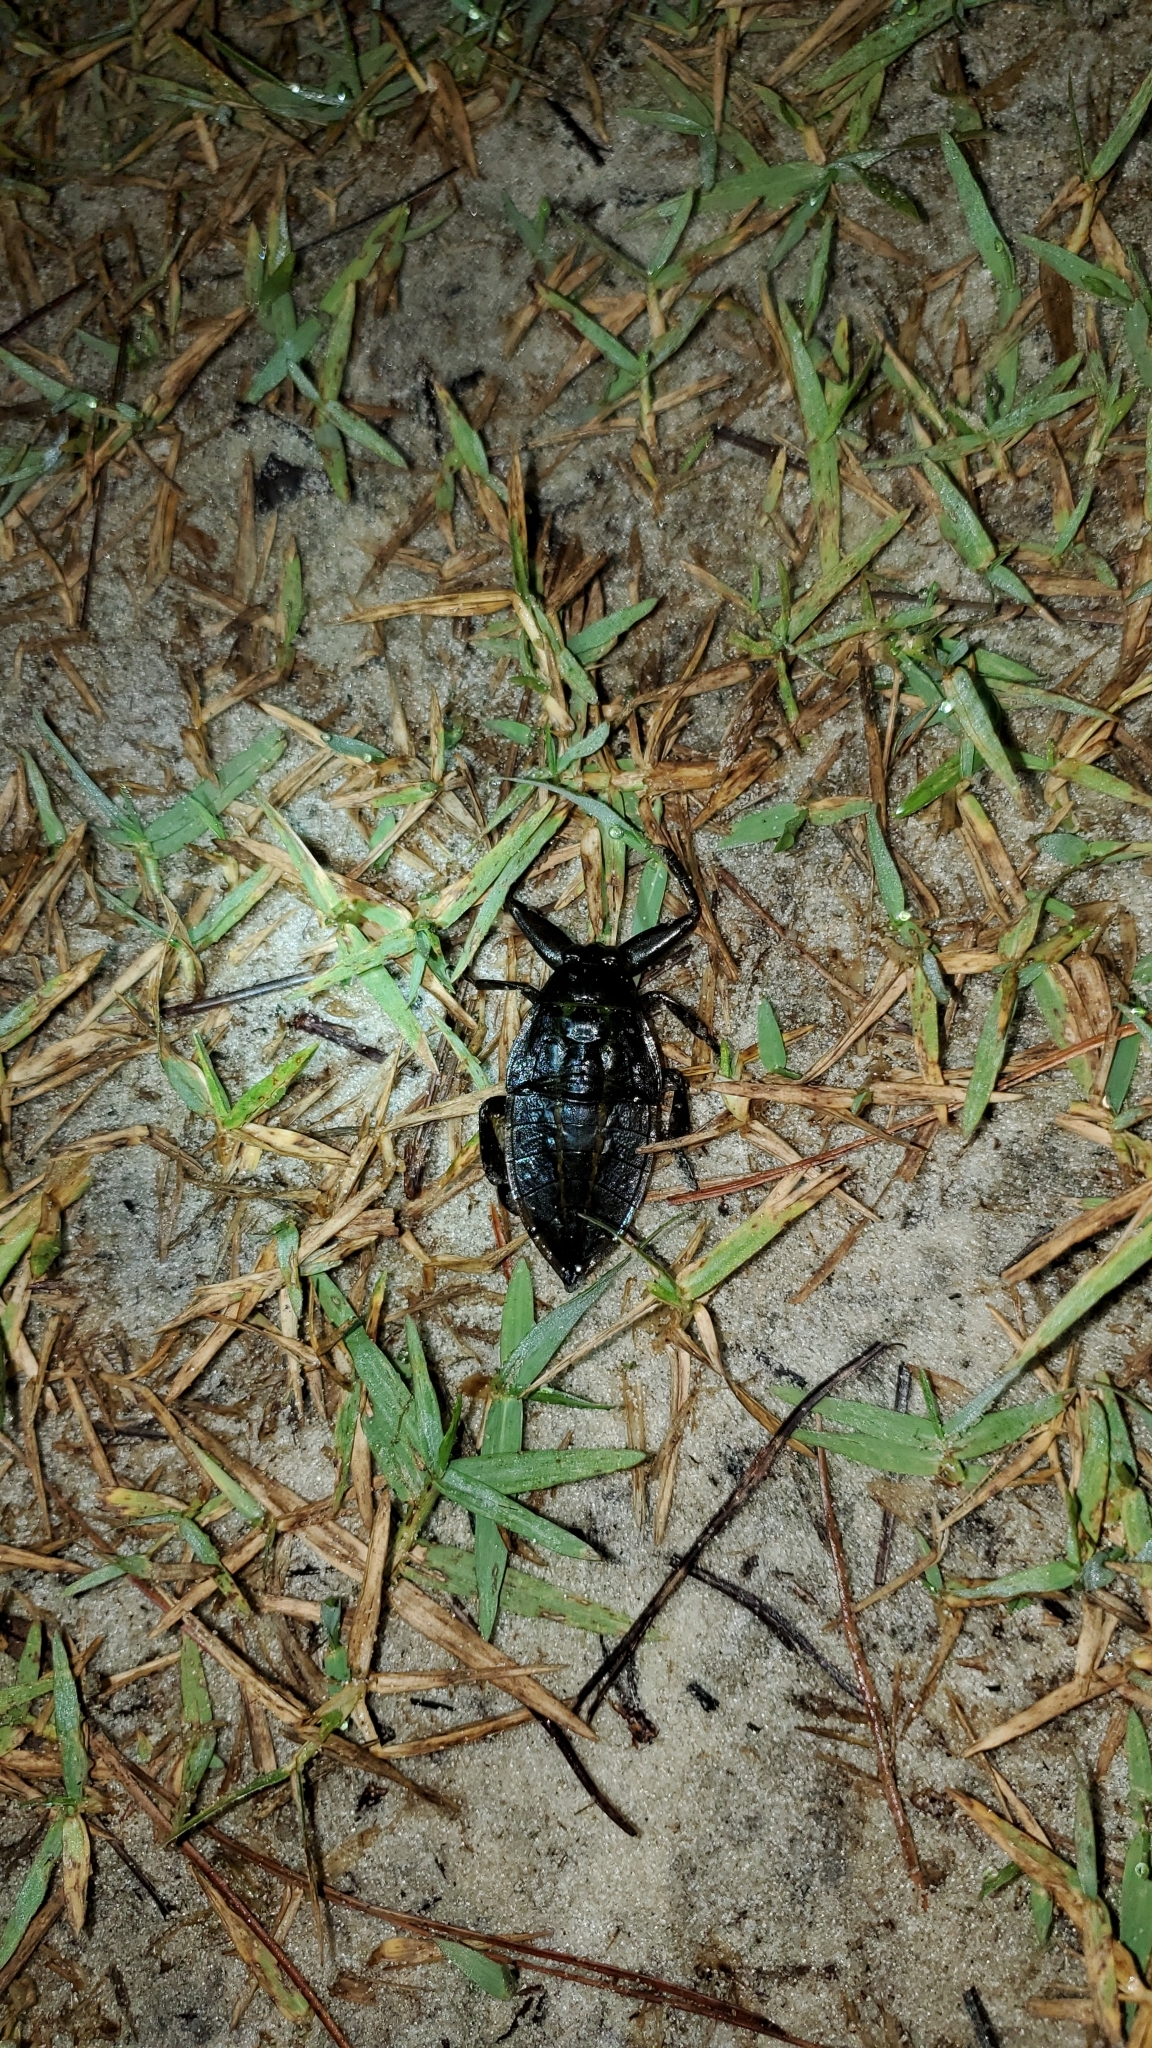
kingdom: Animalia
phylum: Arthropoda
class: Insecta
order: Hemiptera
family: Belostomatidae
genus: Lethocerus
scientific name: Lethocerus uhleri
